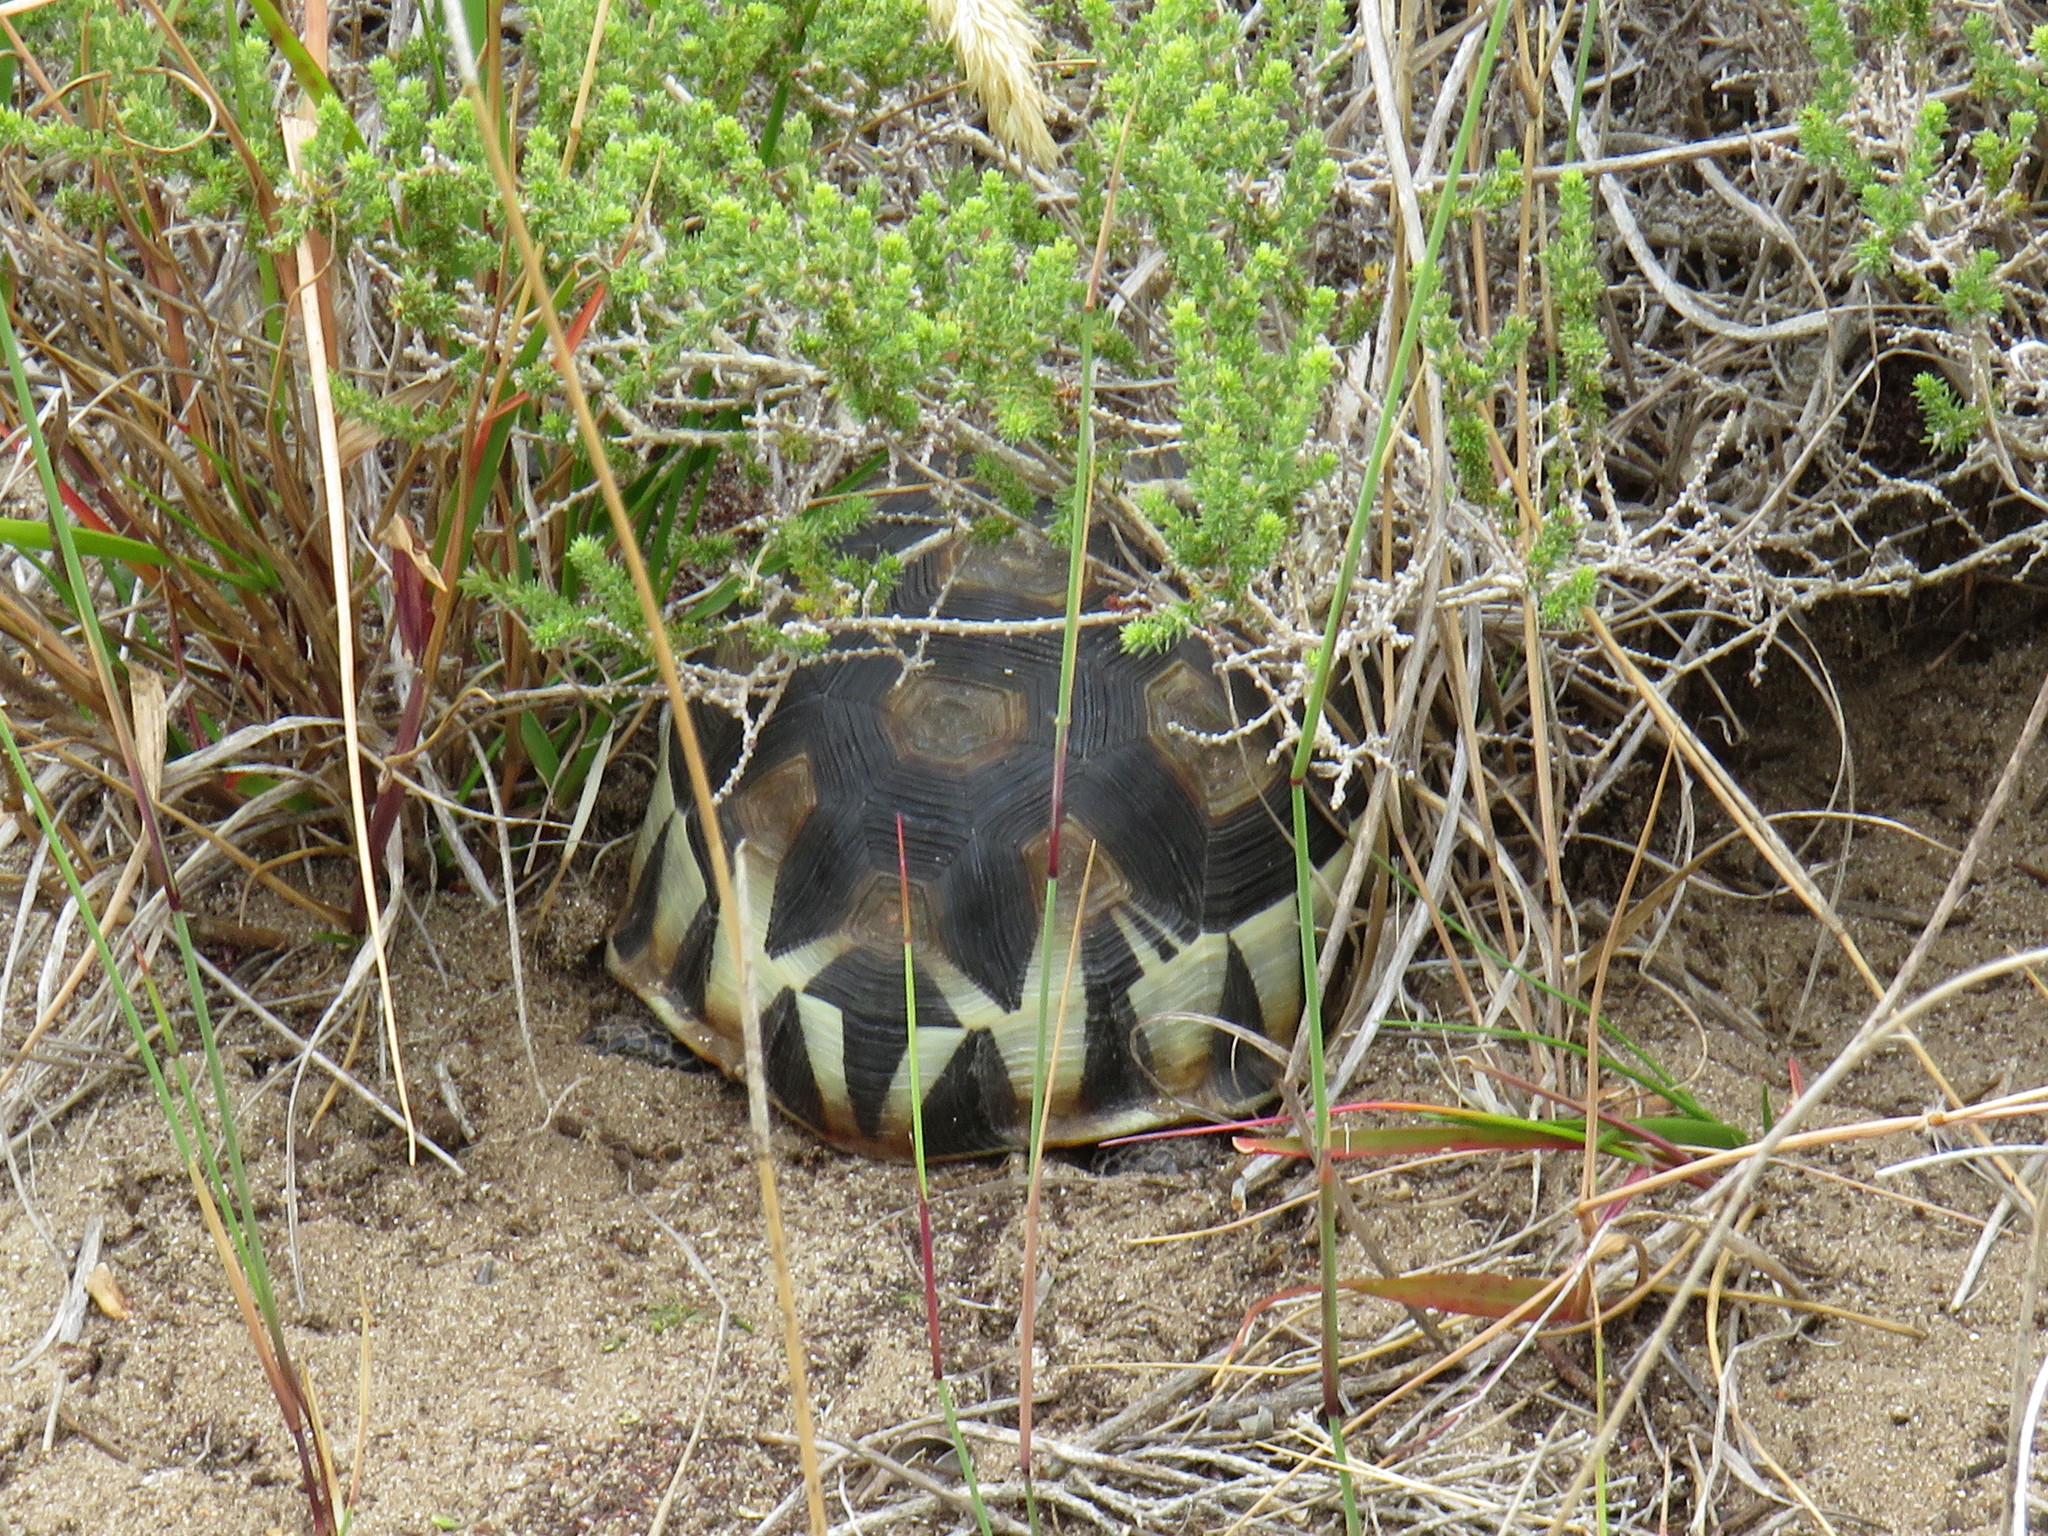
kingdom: Animalia
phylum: Chordata
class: Testudines
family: Testudinidae
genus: Chersina
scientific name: Chersina angulata
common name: South african bowsprit tortoise
